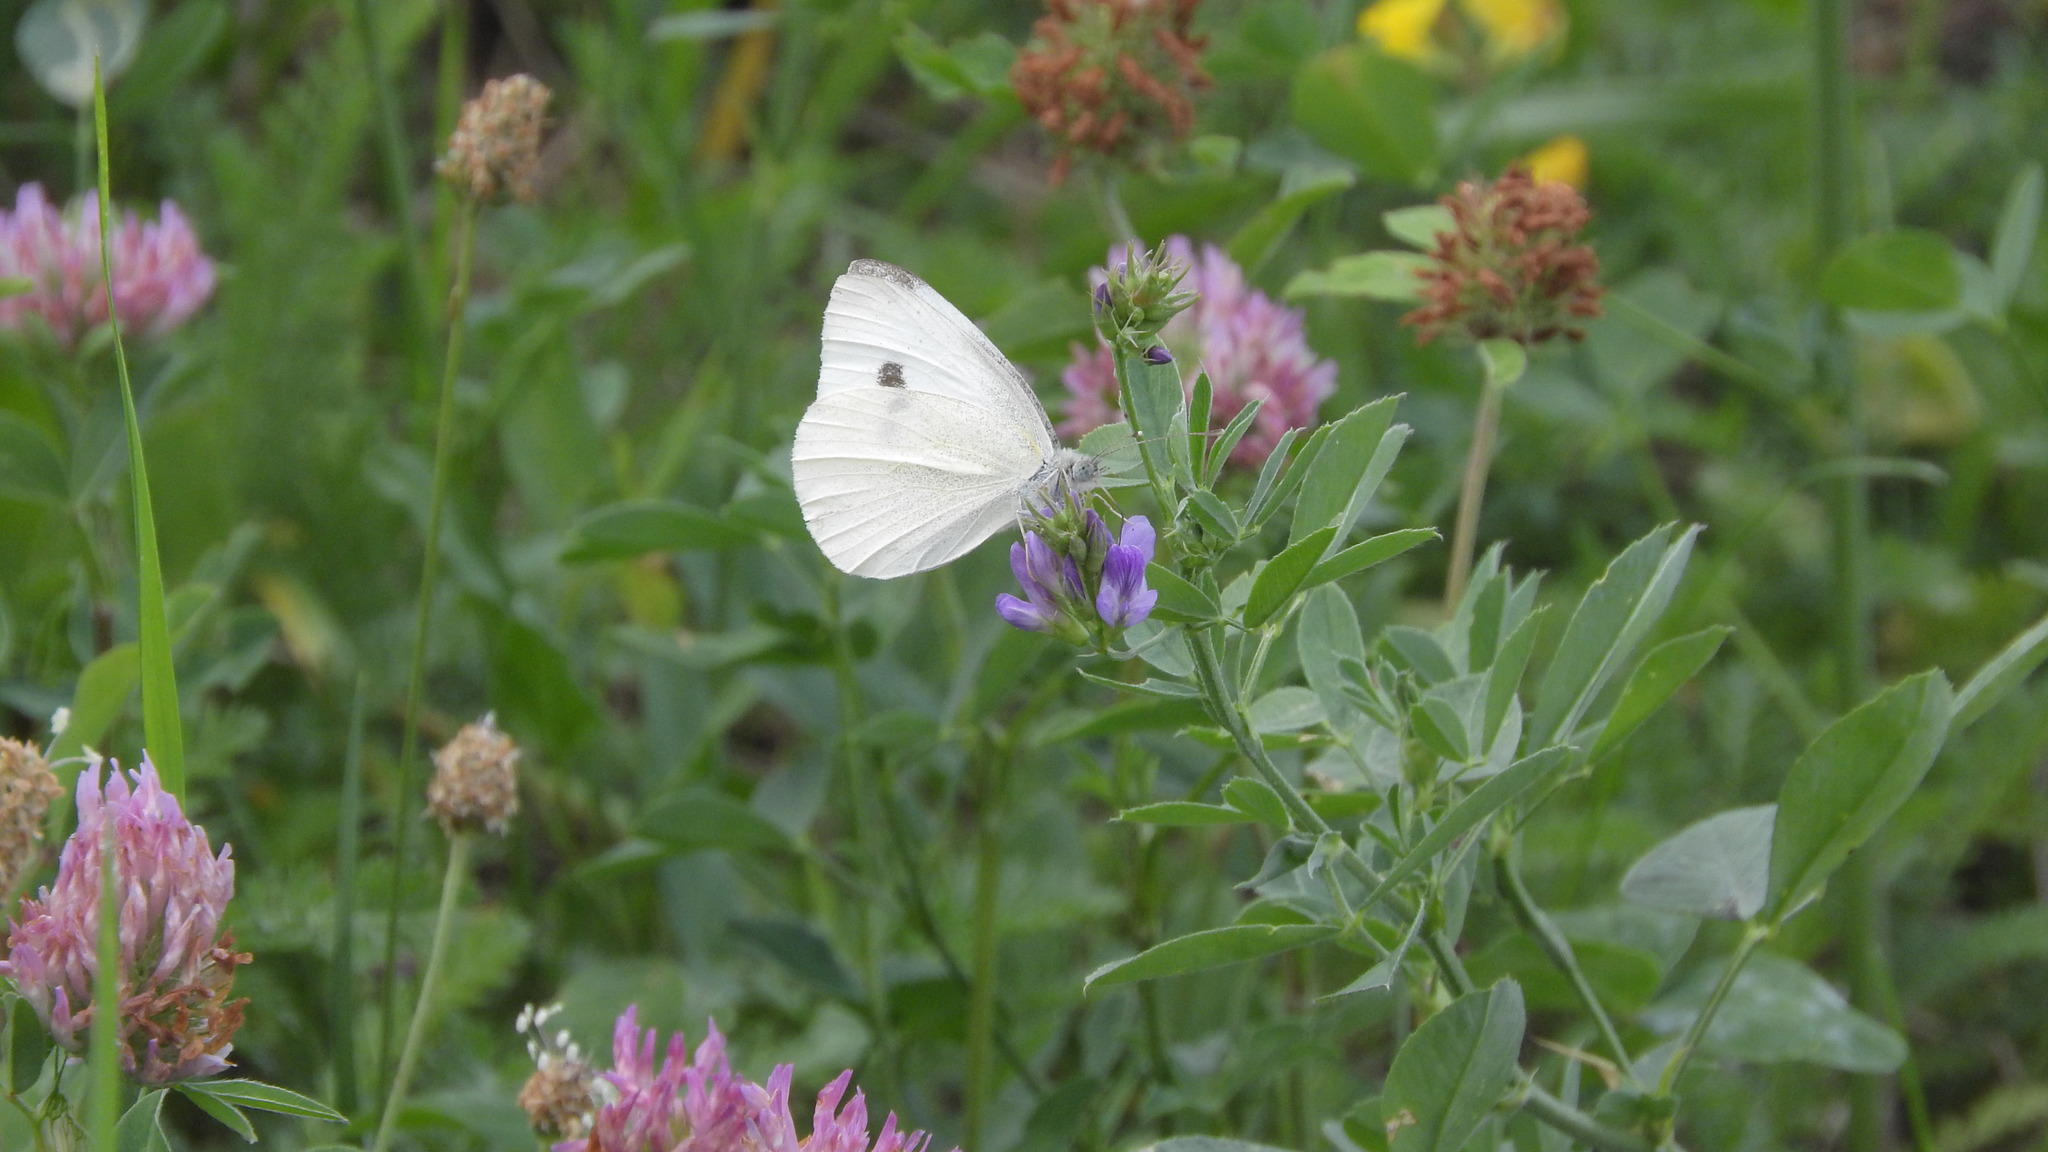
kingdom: Animalia
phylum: Arthropoda
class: Insecta
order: Lepidoptera
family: Pieridae
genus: Pieris
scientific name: Pieris rapae
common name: Small white
